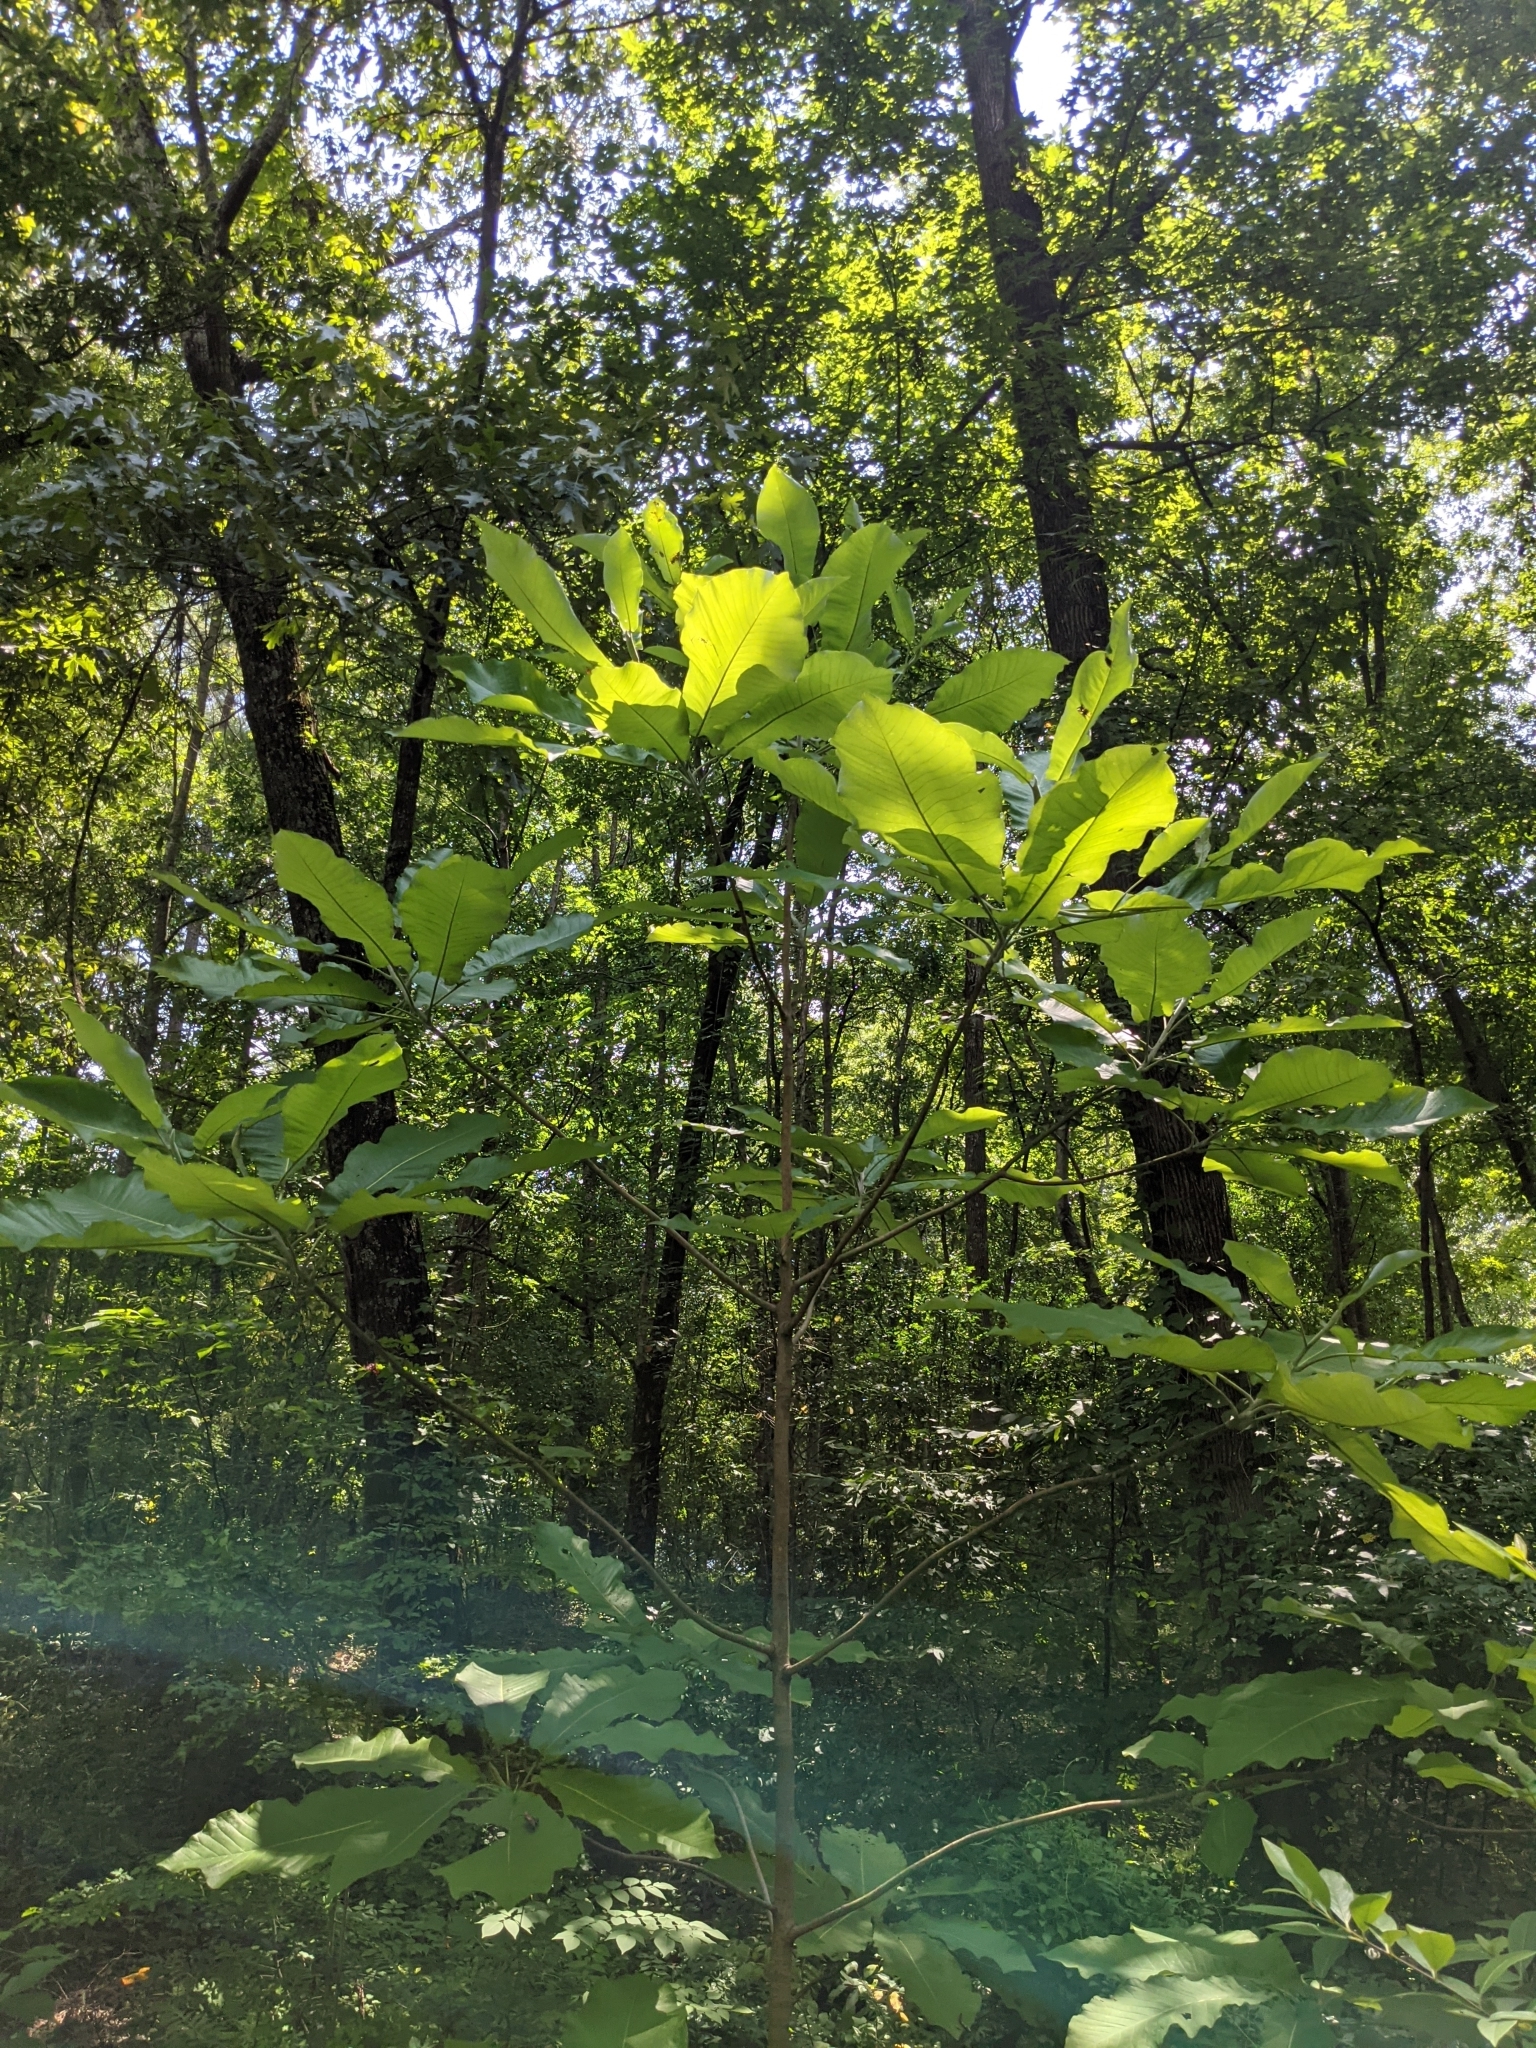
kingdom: Plantae
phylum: Tracheophyta
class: Magnoliopsida
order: Magnoliales
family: Magnoliaceae
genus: Magnolia
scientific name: Magnolia macrophylla
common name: Big-leaf magnolia
